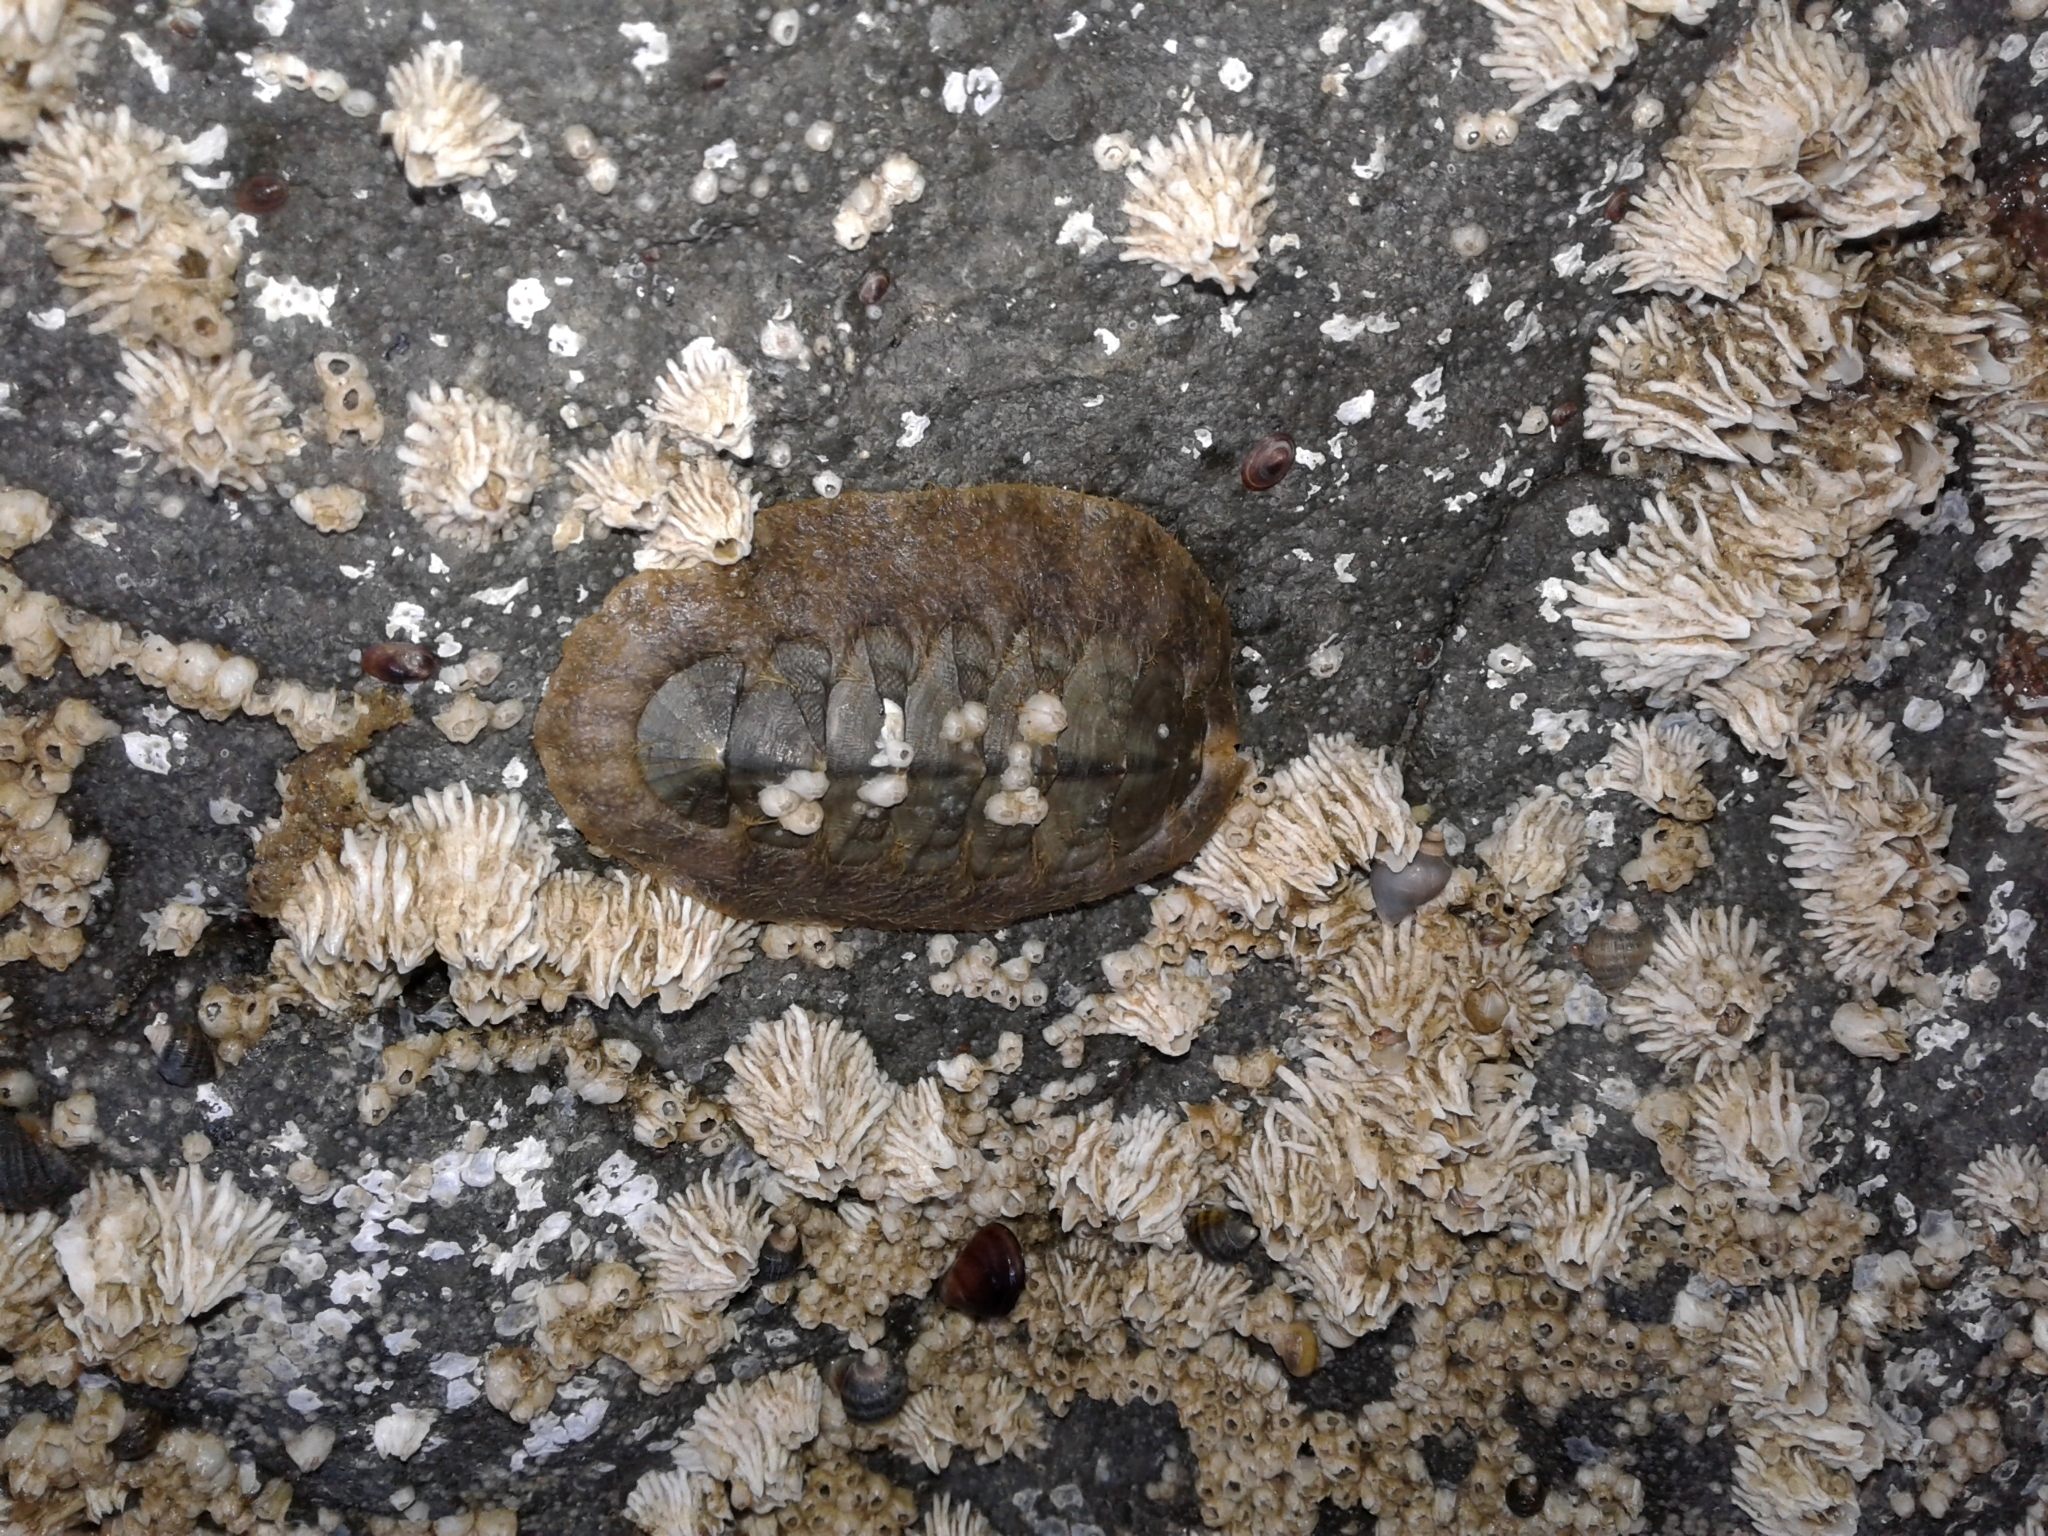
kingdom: Animalia
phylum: Mollusca
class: Polyplacophora
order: Chitonida
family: Mopaliidae
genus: Mopalia
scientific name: Mopalia hindsii
